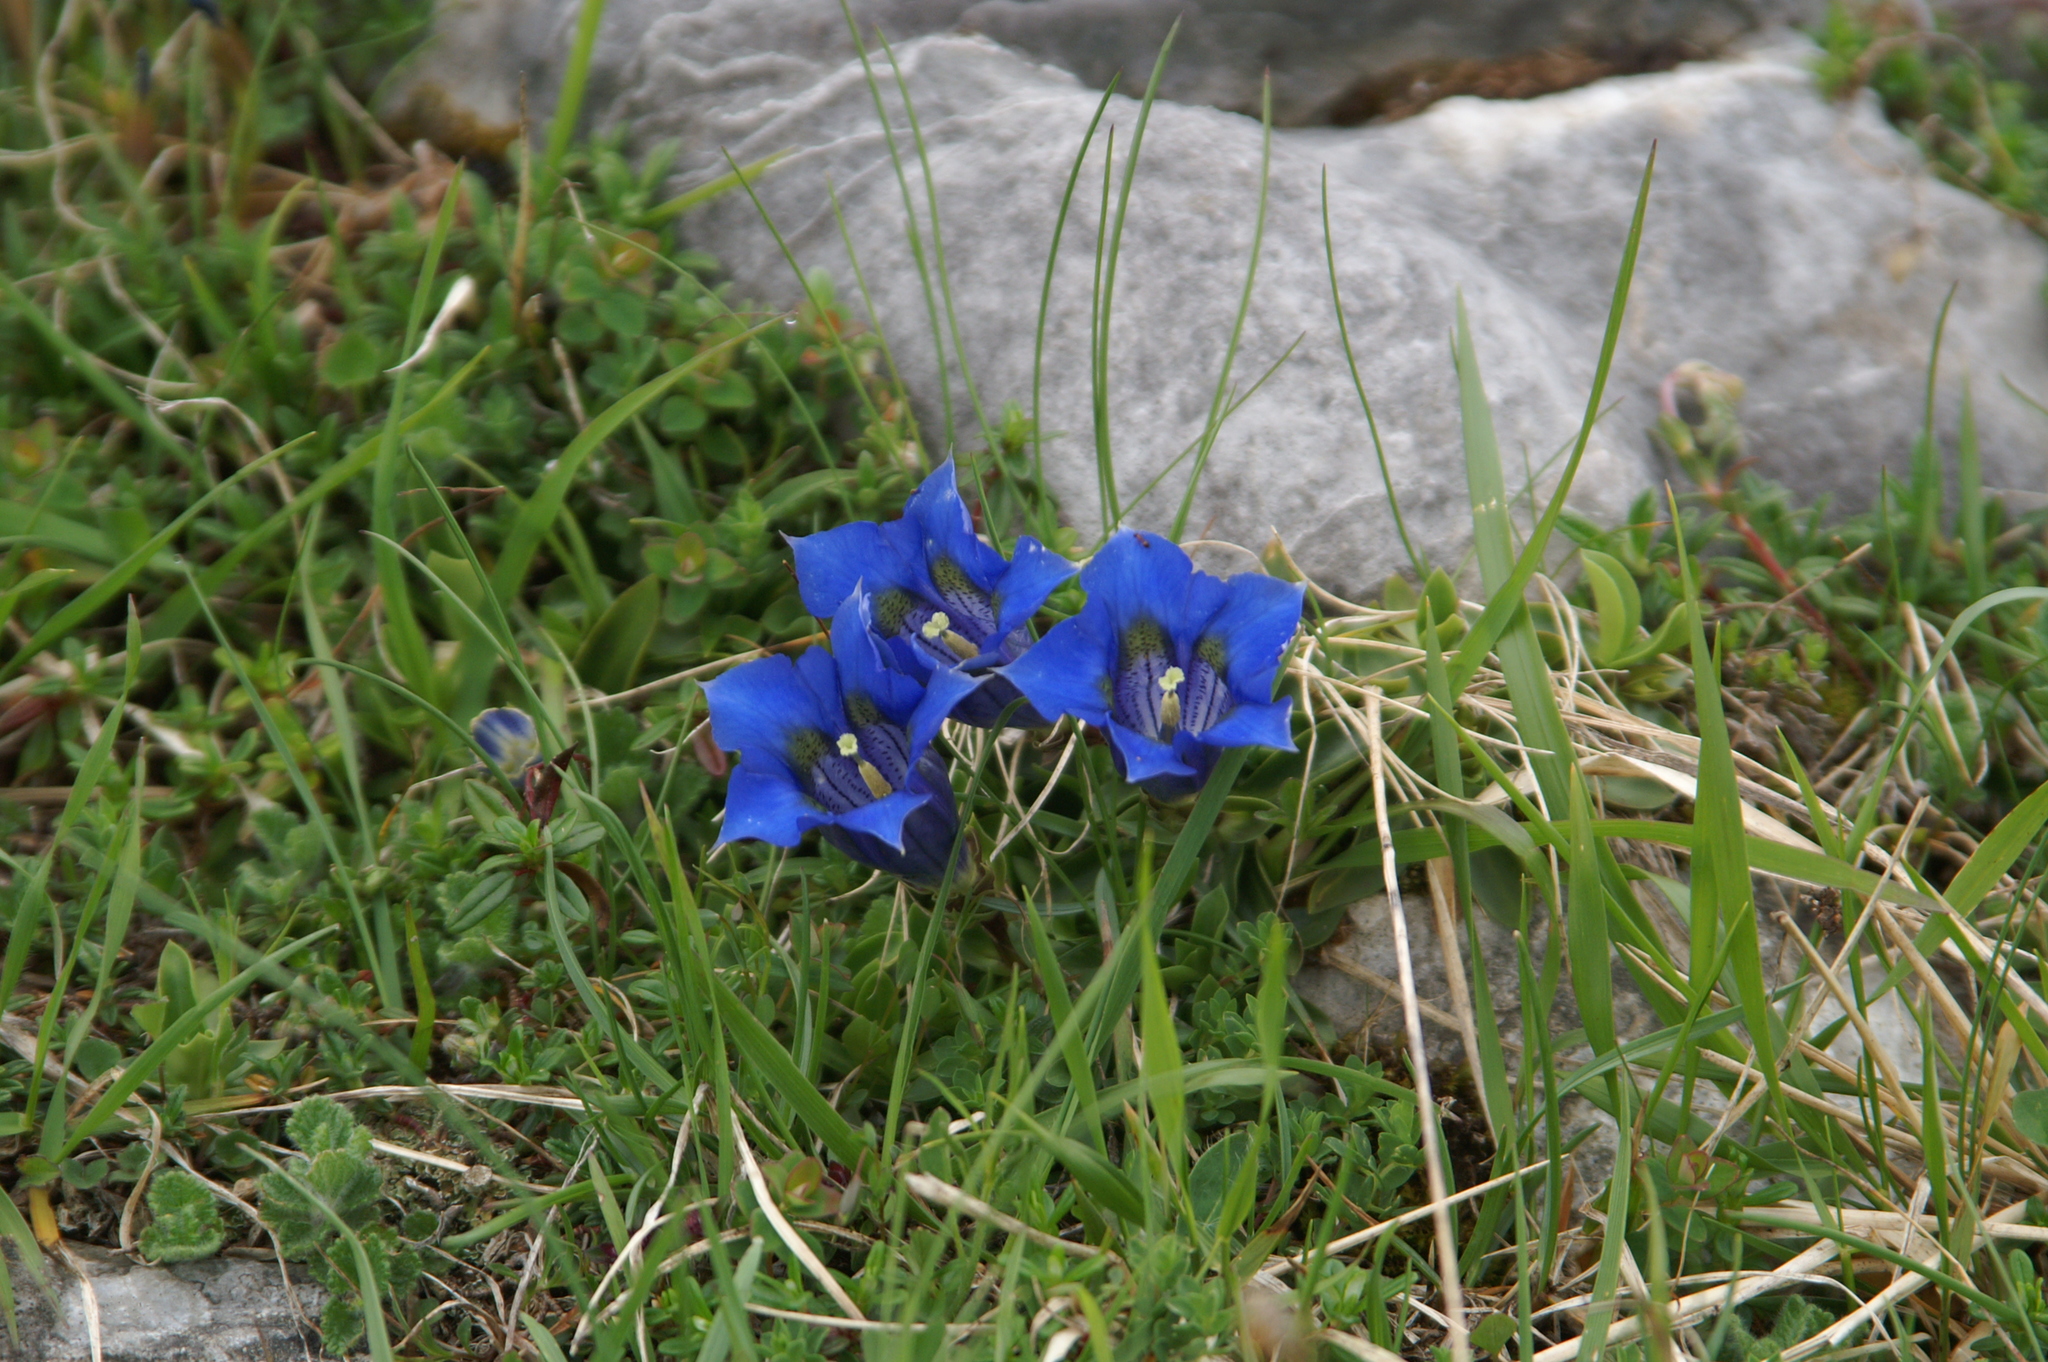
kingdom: Plantae
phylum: Tracheophyta
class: Magnoliopsida
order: Gentianales
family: Gentianaceae
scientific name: Gentianaceae
